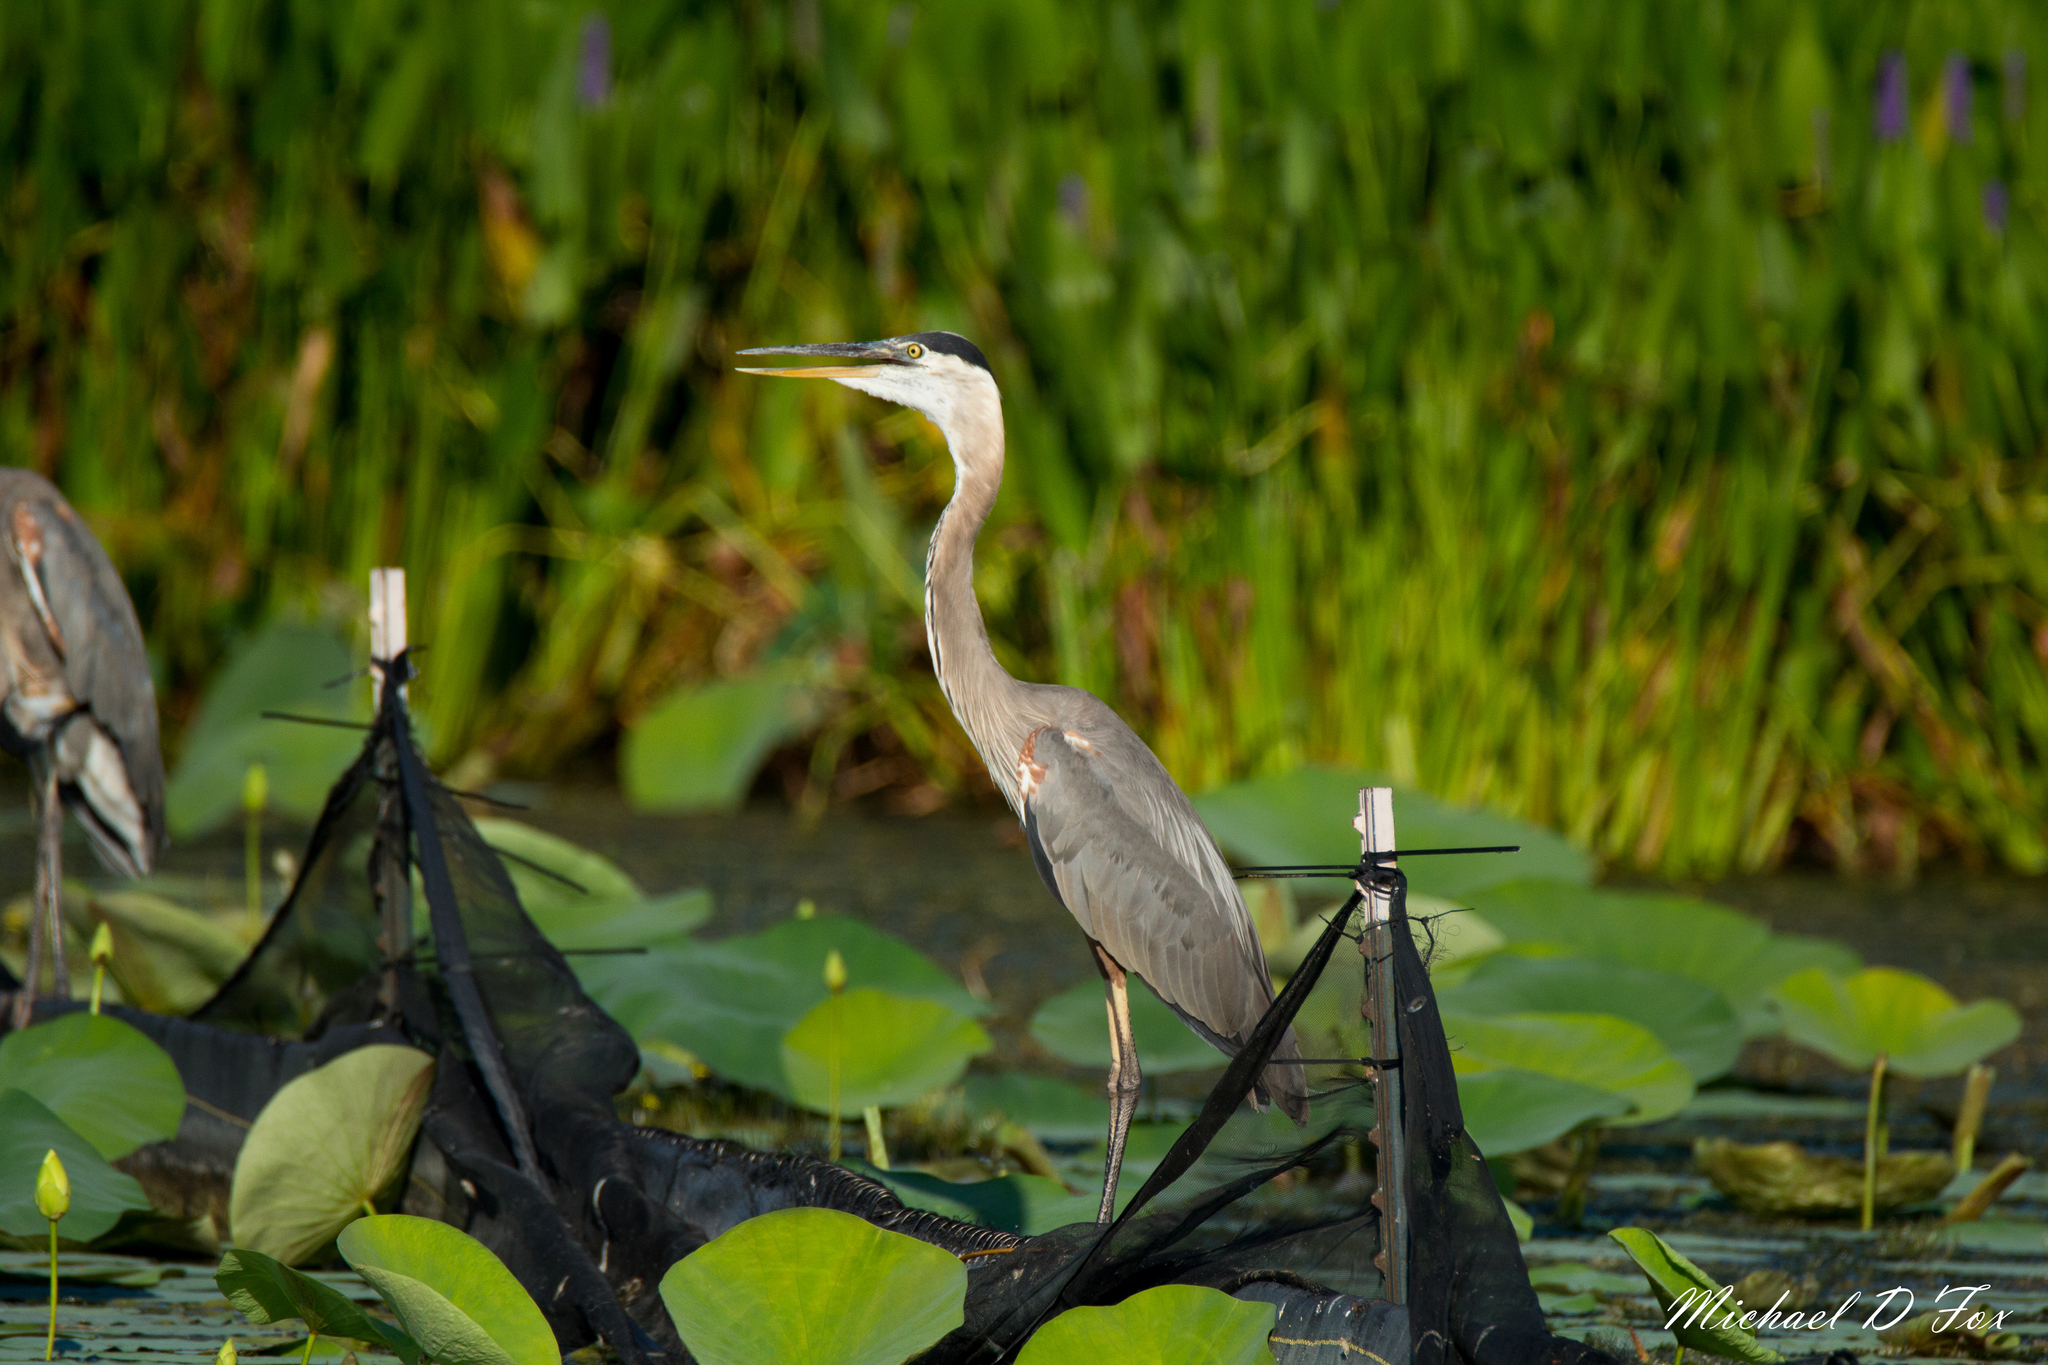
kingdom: Animalia
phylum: Chordata
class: Aves
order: Pelecaniformes
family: Ardeidae
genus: Ardea
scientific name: Ardea herodias
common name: Great blue heron
